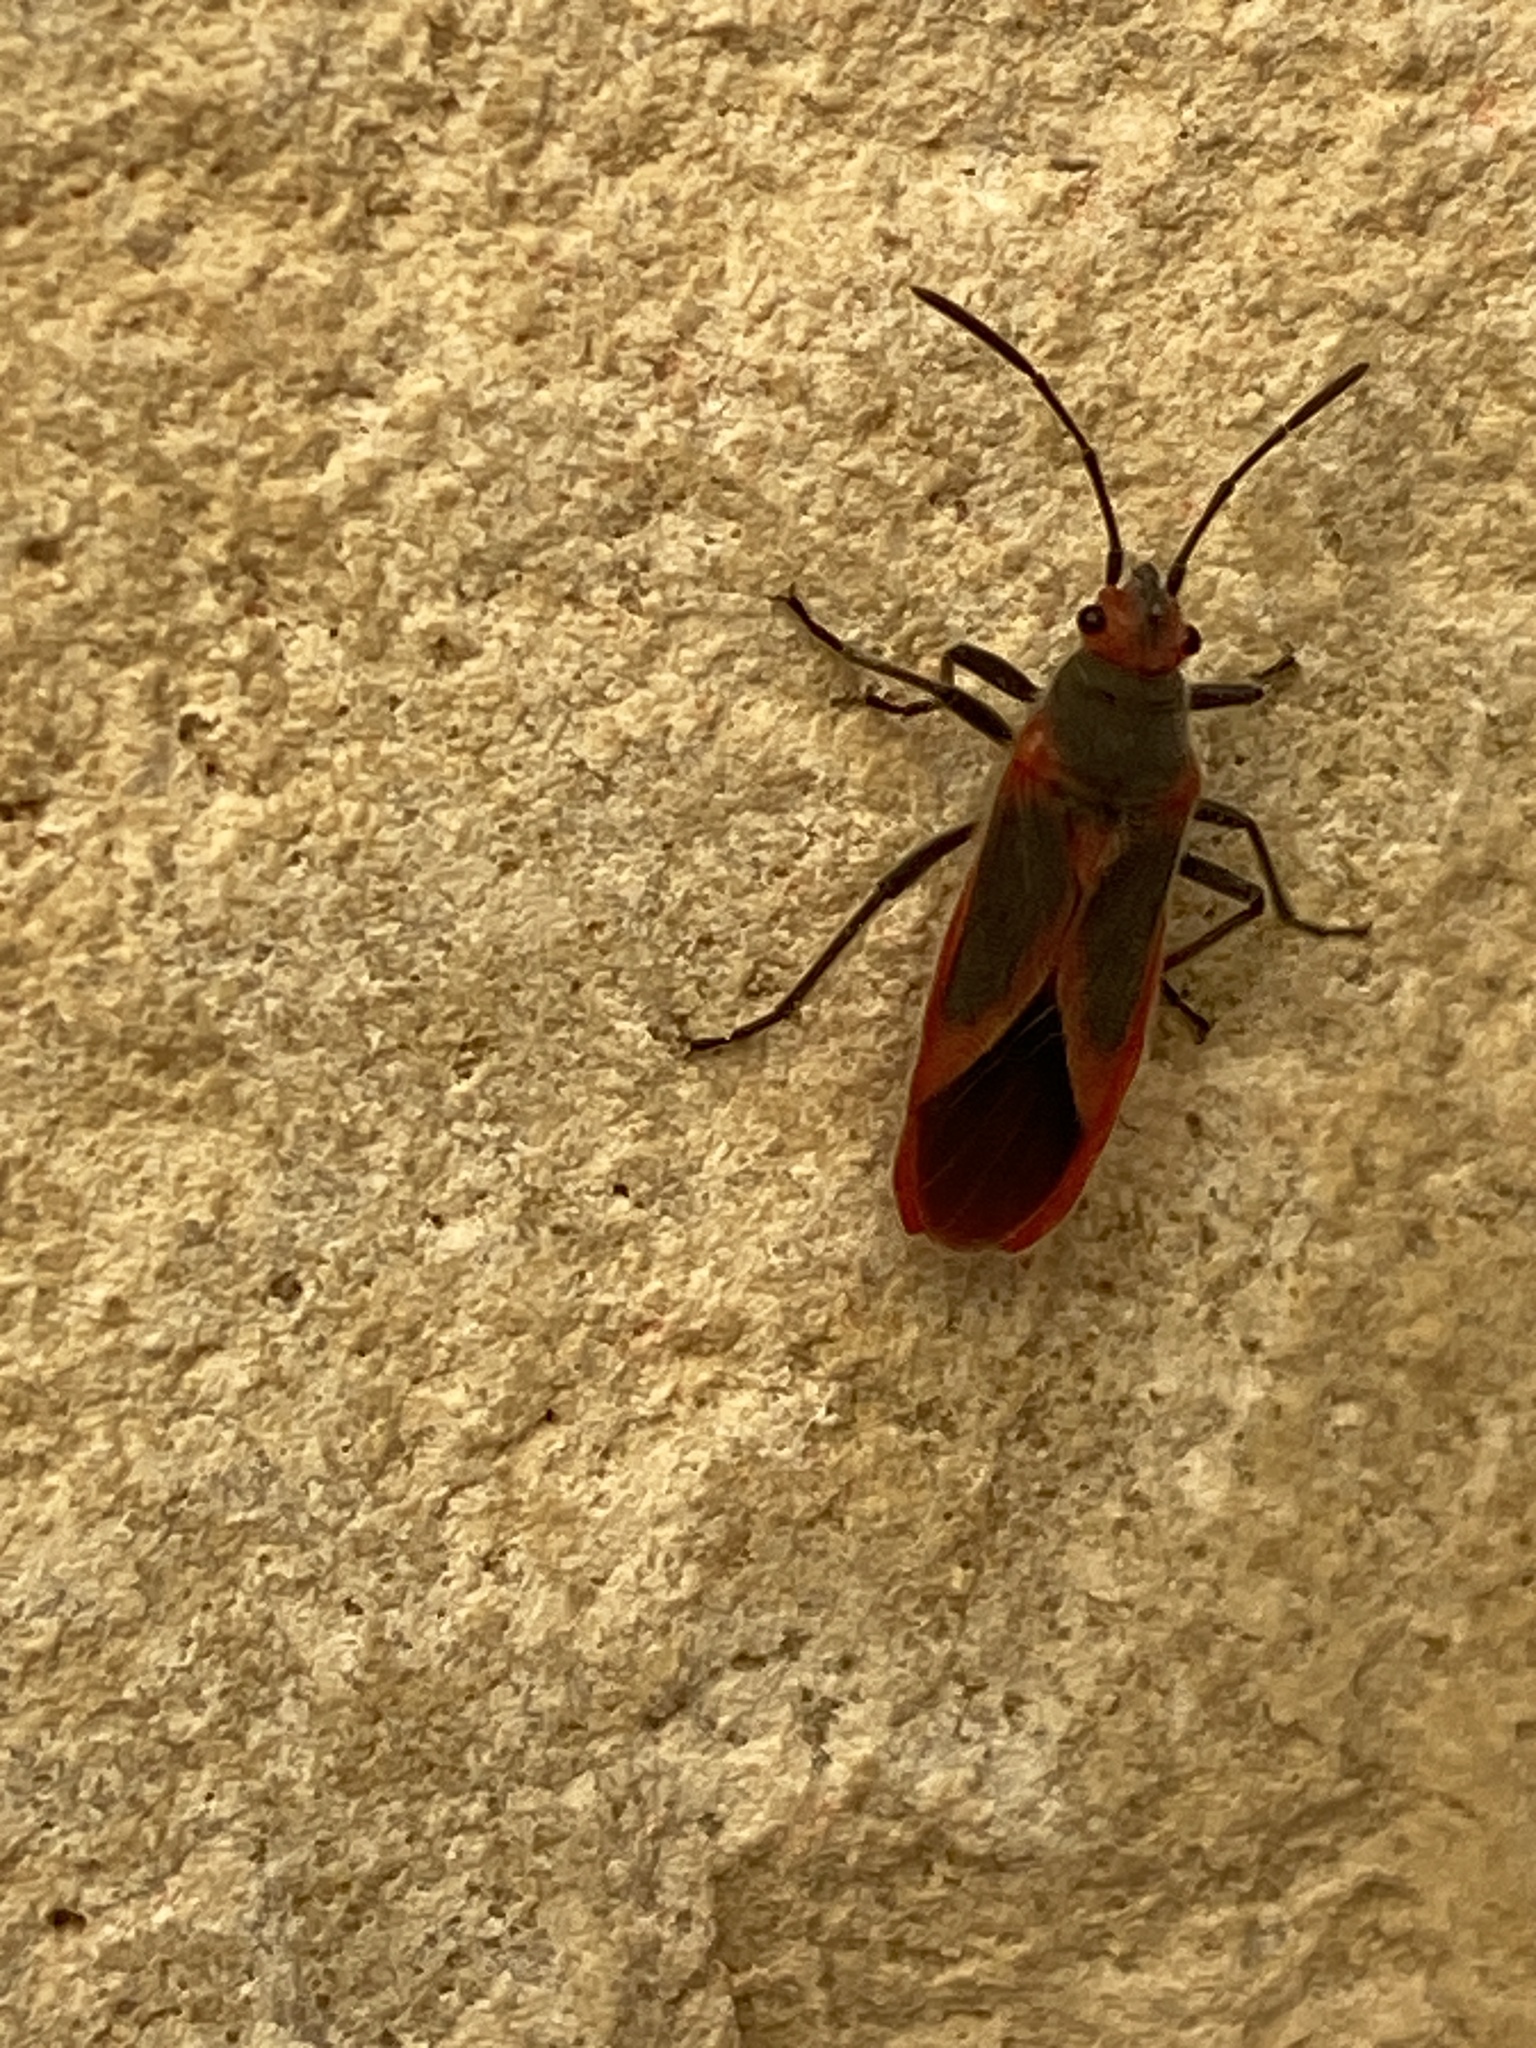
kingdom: Animalia
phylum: Arthropoda
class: Insecta
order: Hemiptera
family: Lygaeidae
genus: Caenocoris
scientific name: Caenocoris nerii
